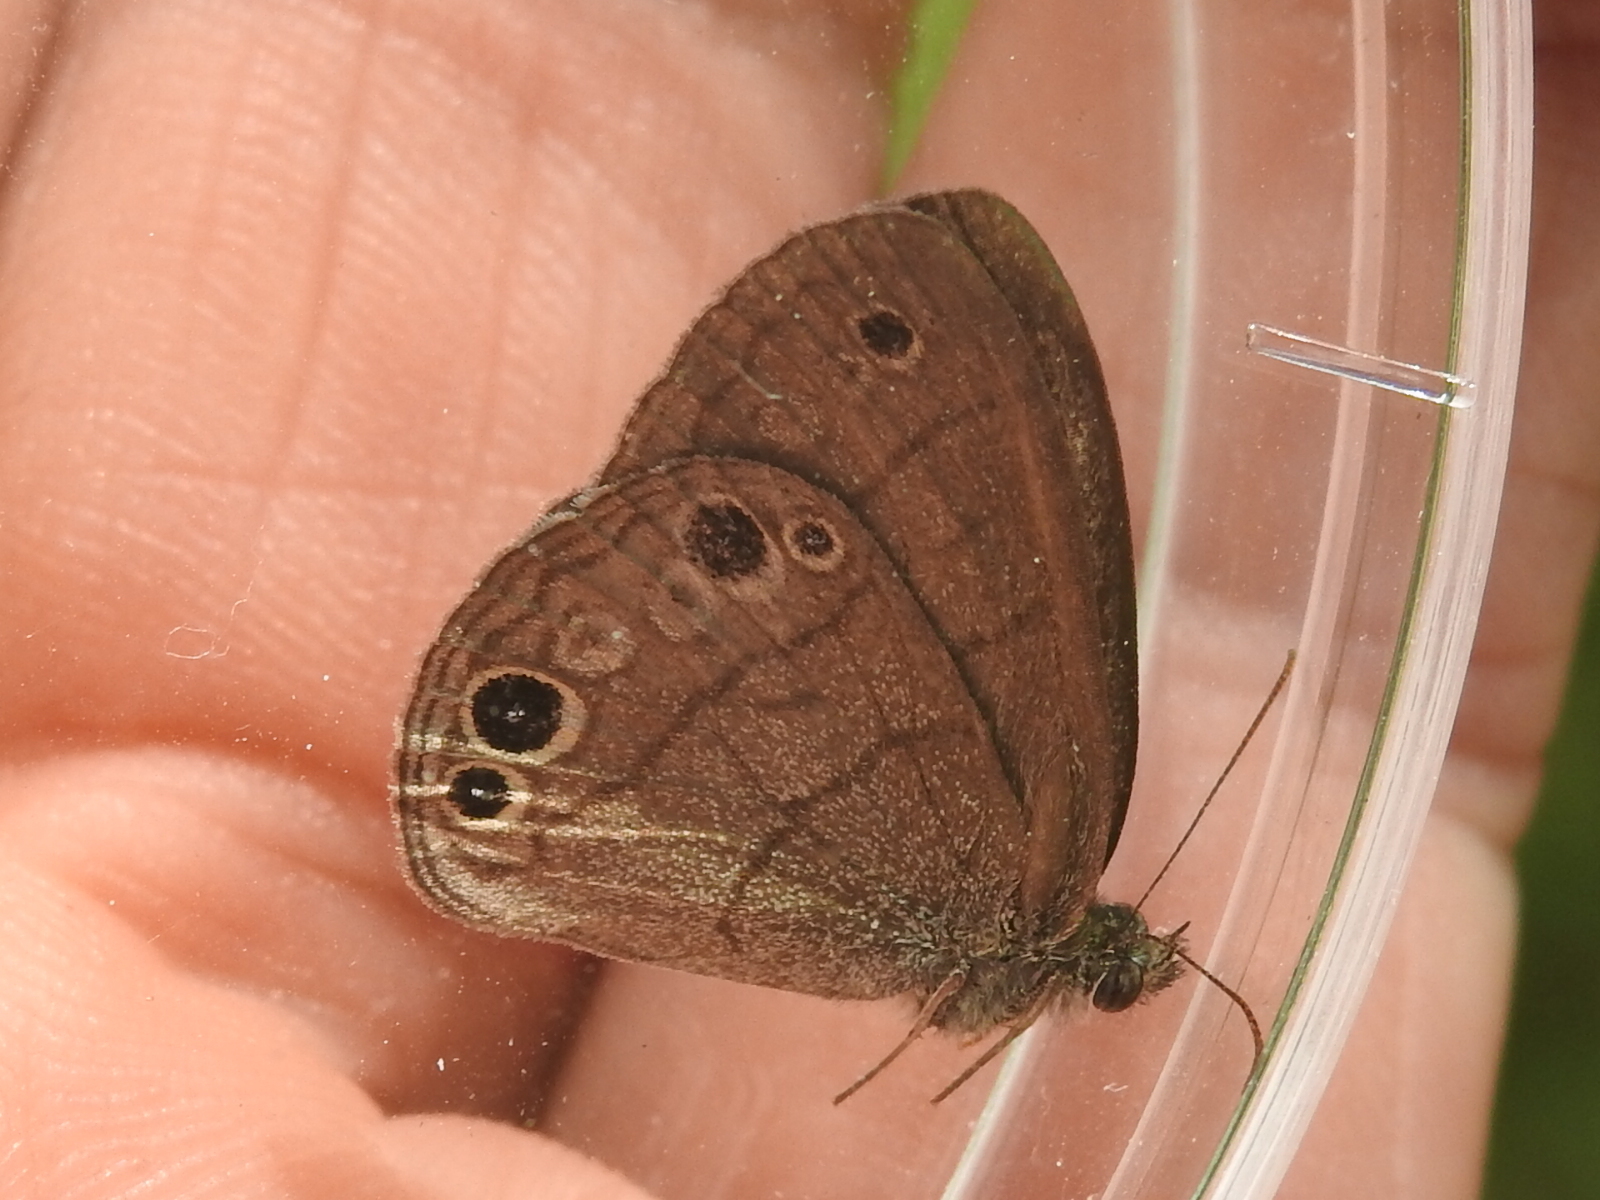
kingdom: Animalia
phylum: Arthropoda
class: Insecta
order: Lepidoptera
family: Nymphalidae
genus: Hermeuptychia
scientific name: Hermeuptychia hermes
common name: Hermes satyr
